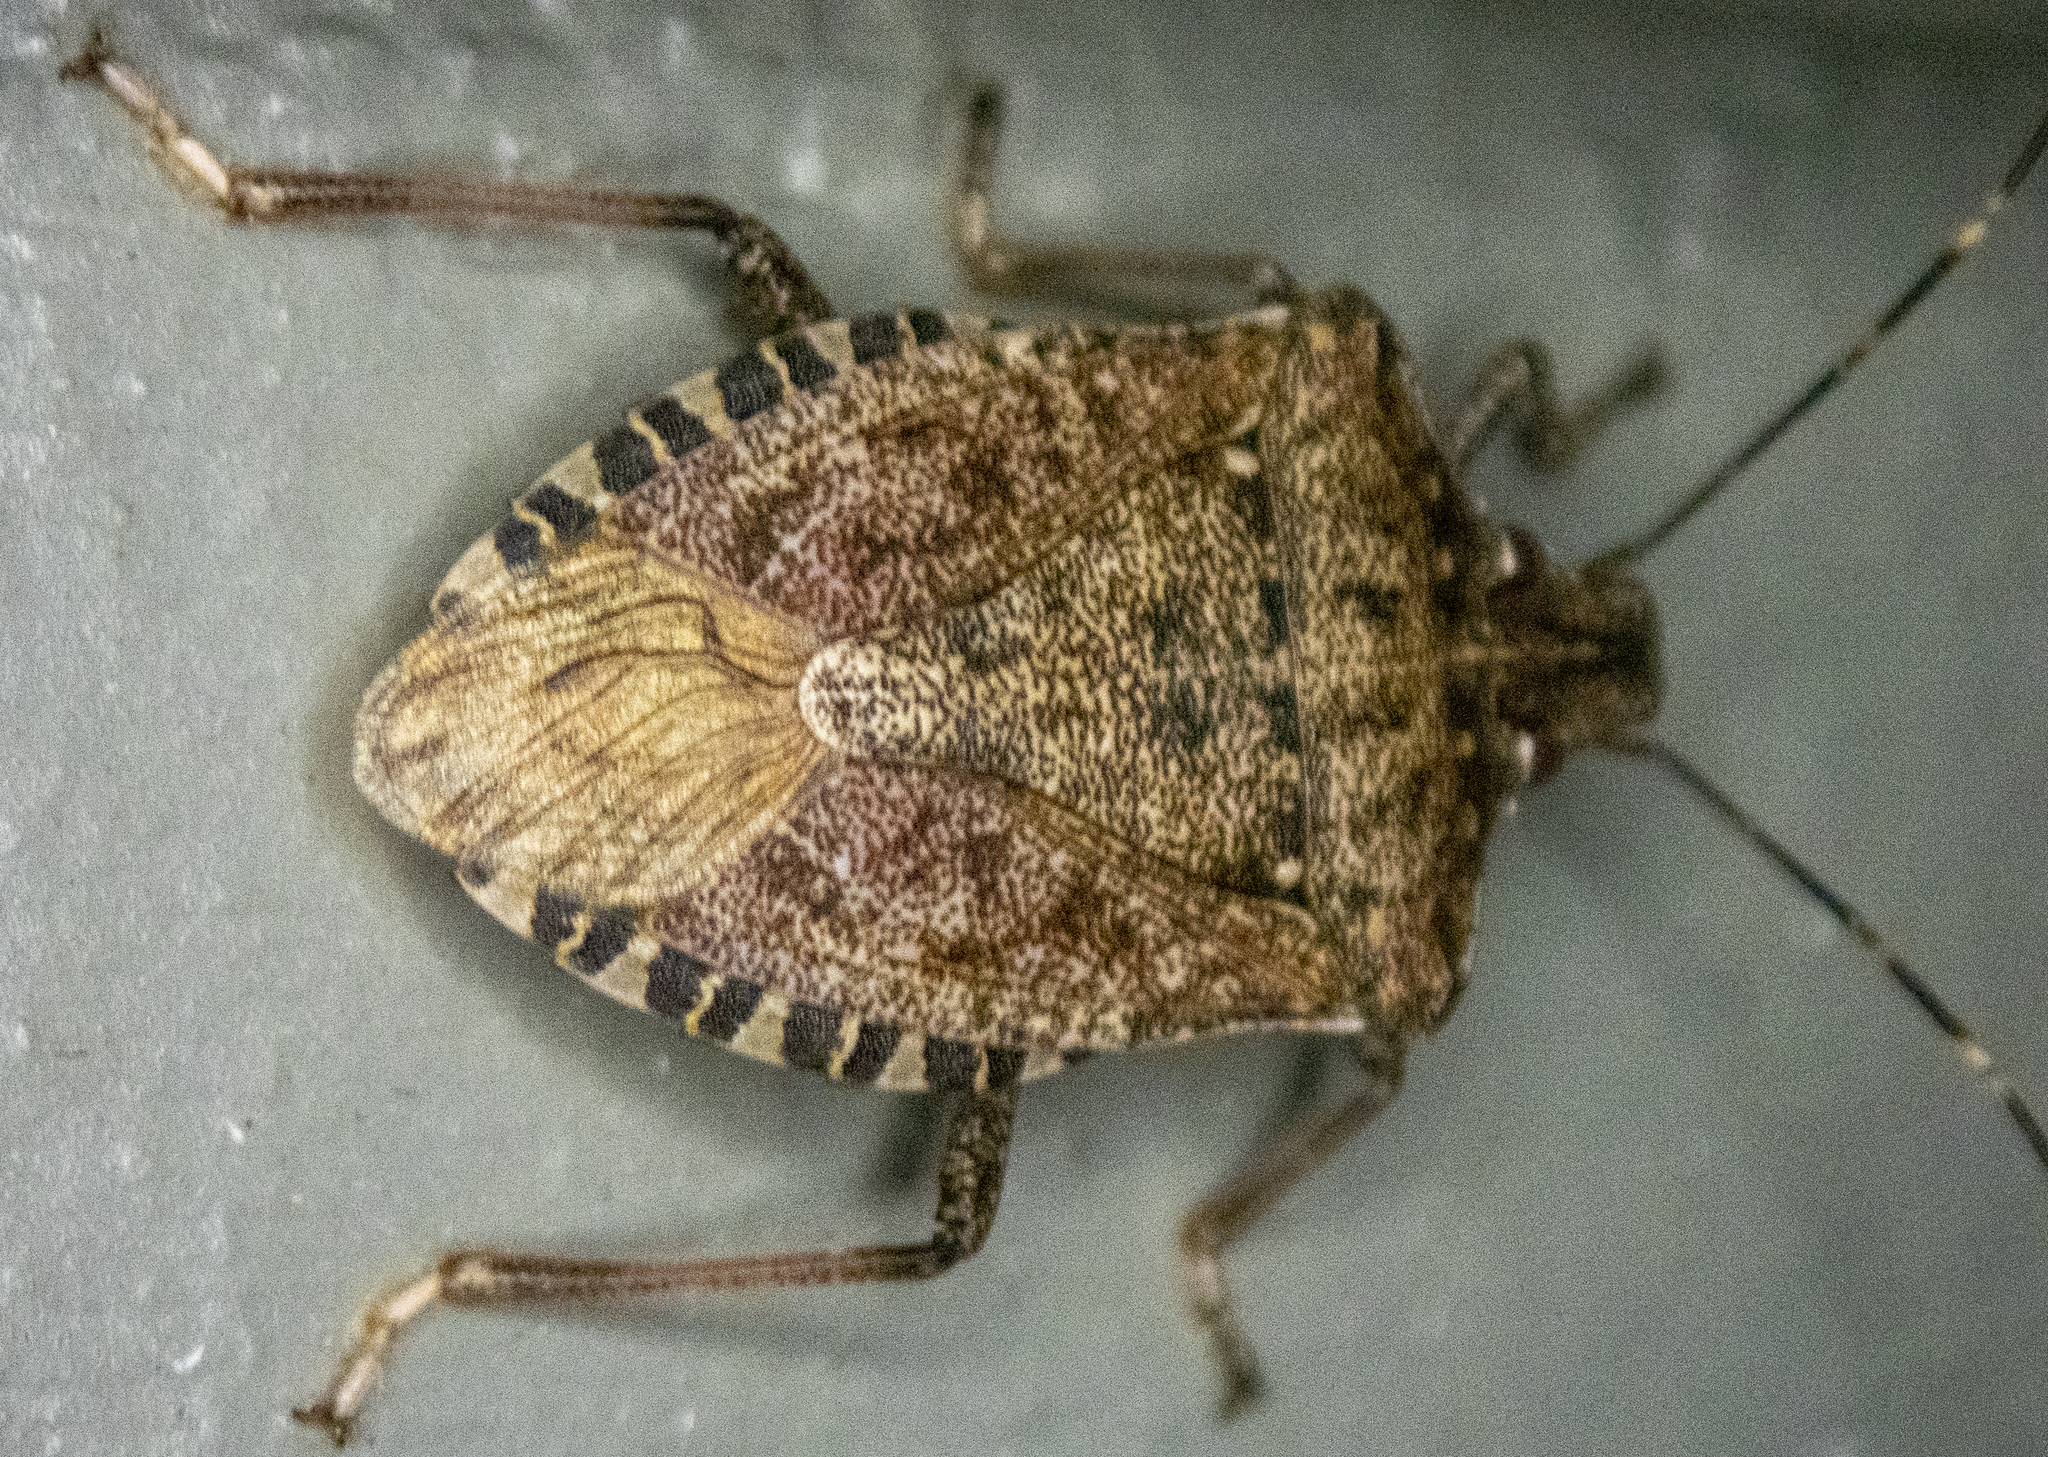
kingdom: Animalia
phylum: Arthropoda
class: Insecta
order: Hemiptera
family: Pentatomidae
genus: Halyomorpha
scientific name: Halyomorpha halys
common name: Brown marmorated stink bug
